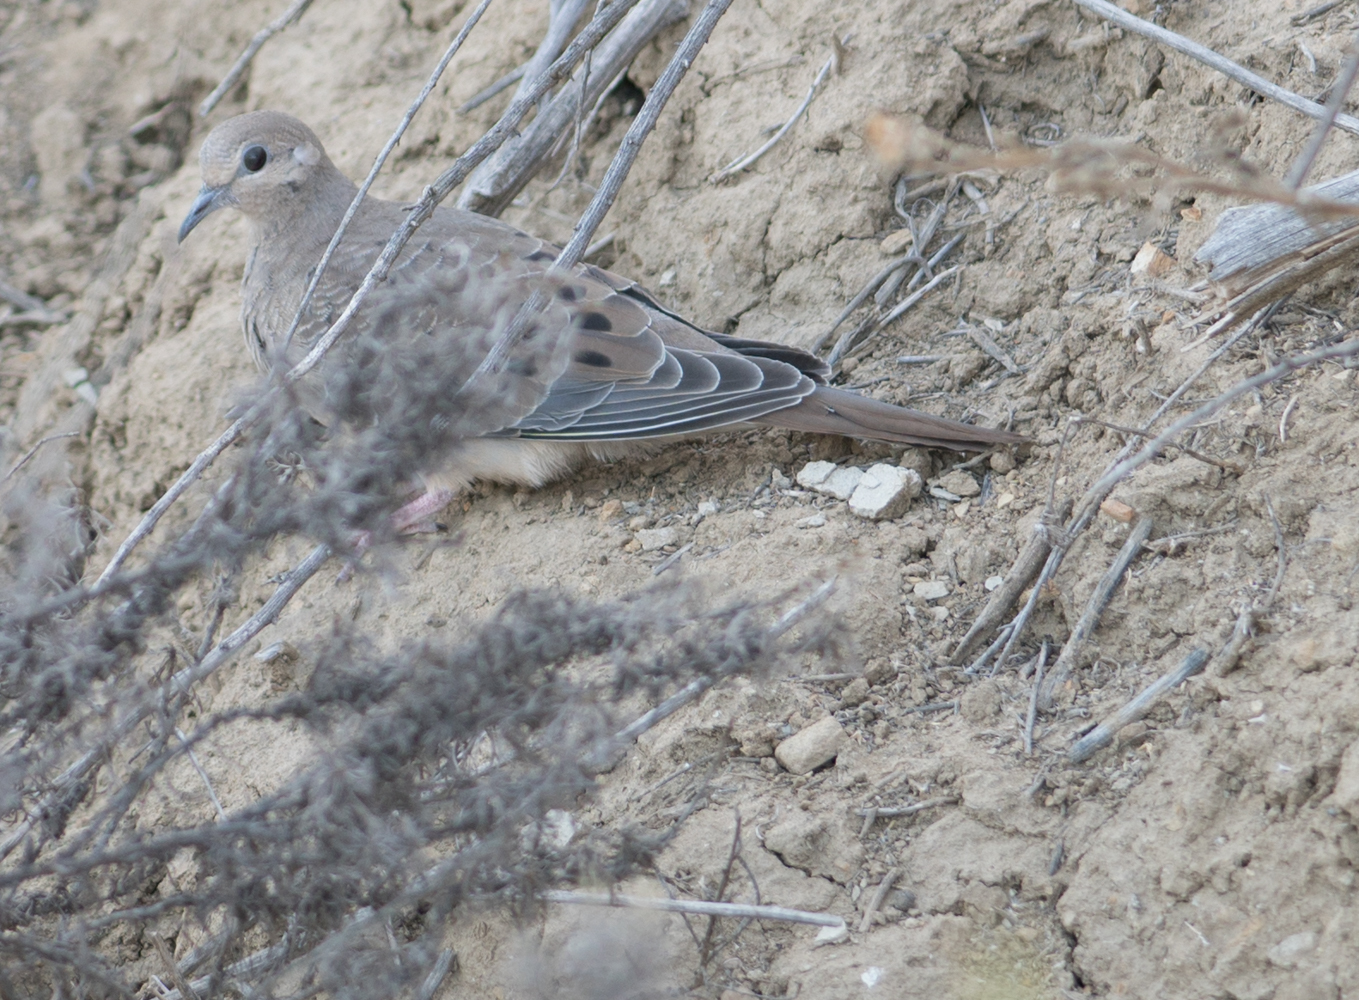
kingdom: Animalia
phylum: Chordata
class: Aves
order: Columbiformes
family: Columbidae
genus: Zenaida
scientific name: Zenaida macroura
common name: Mourning dove
